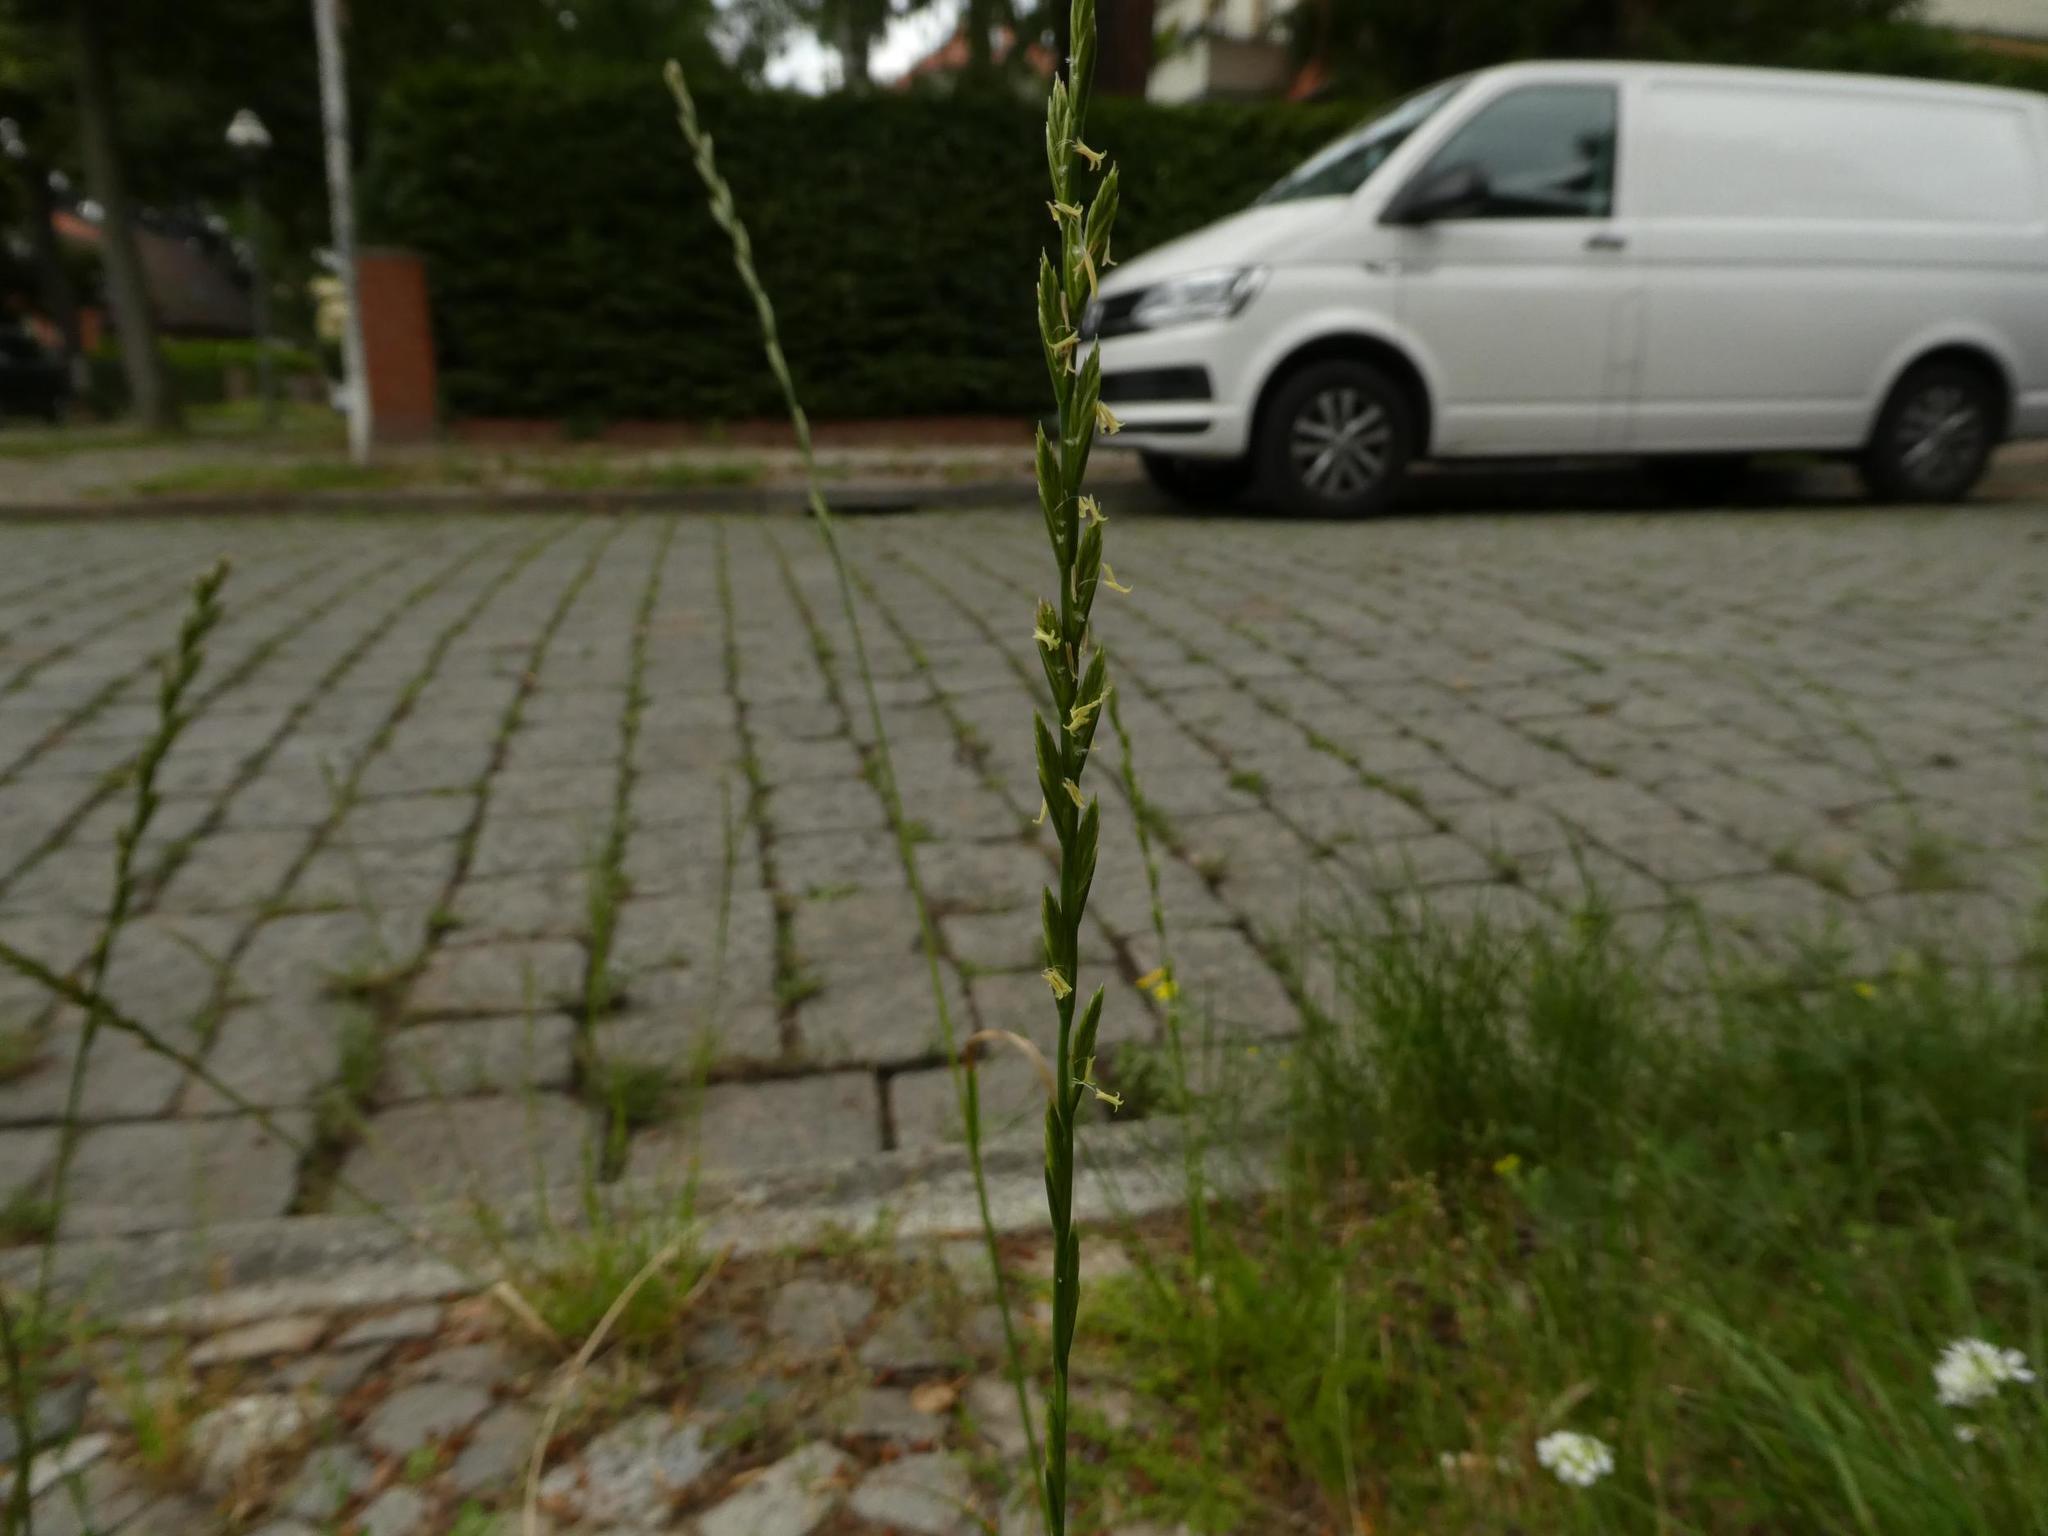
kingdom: Plantae
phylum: Tracheophyta
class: Liliopsida
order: Poales
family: Poaceae
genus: Lolium
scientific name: Lolium perenne
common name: Perennial ryegrass
